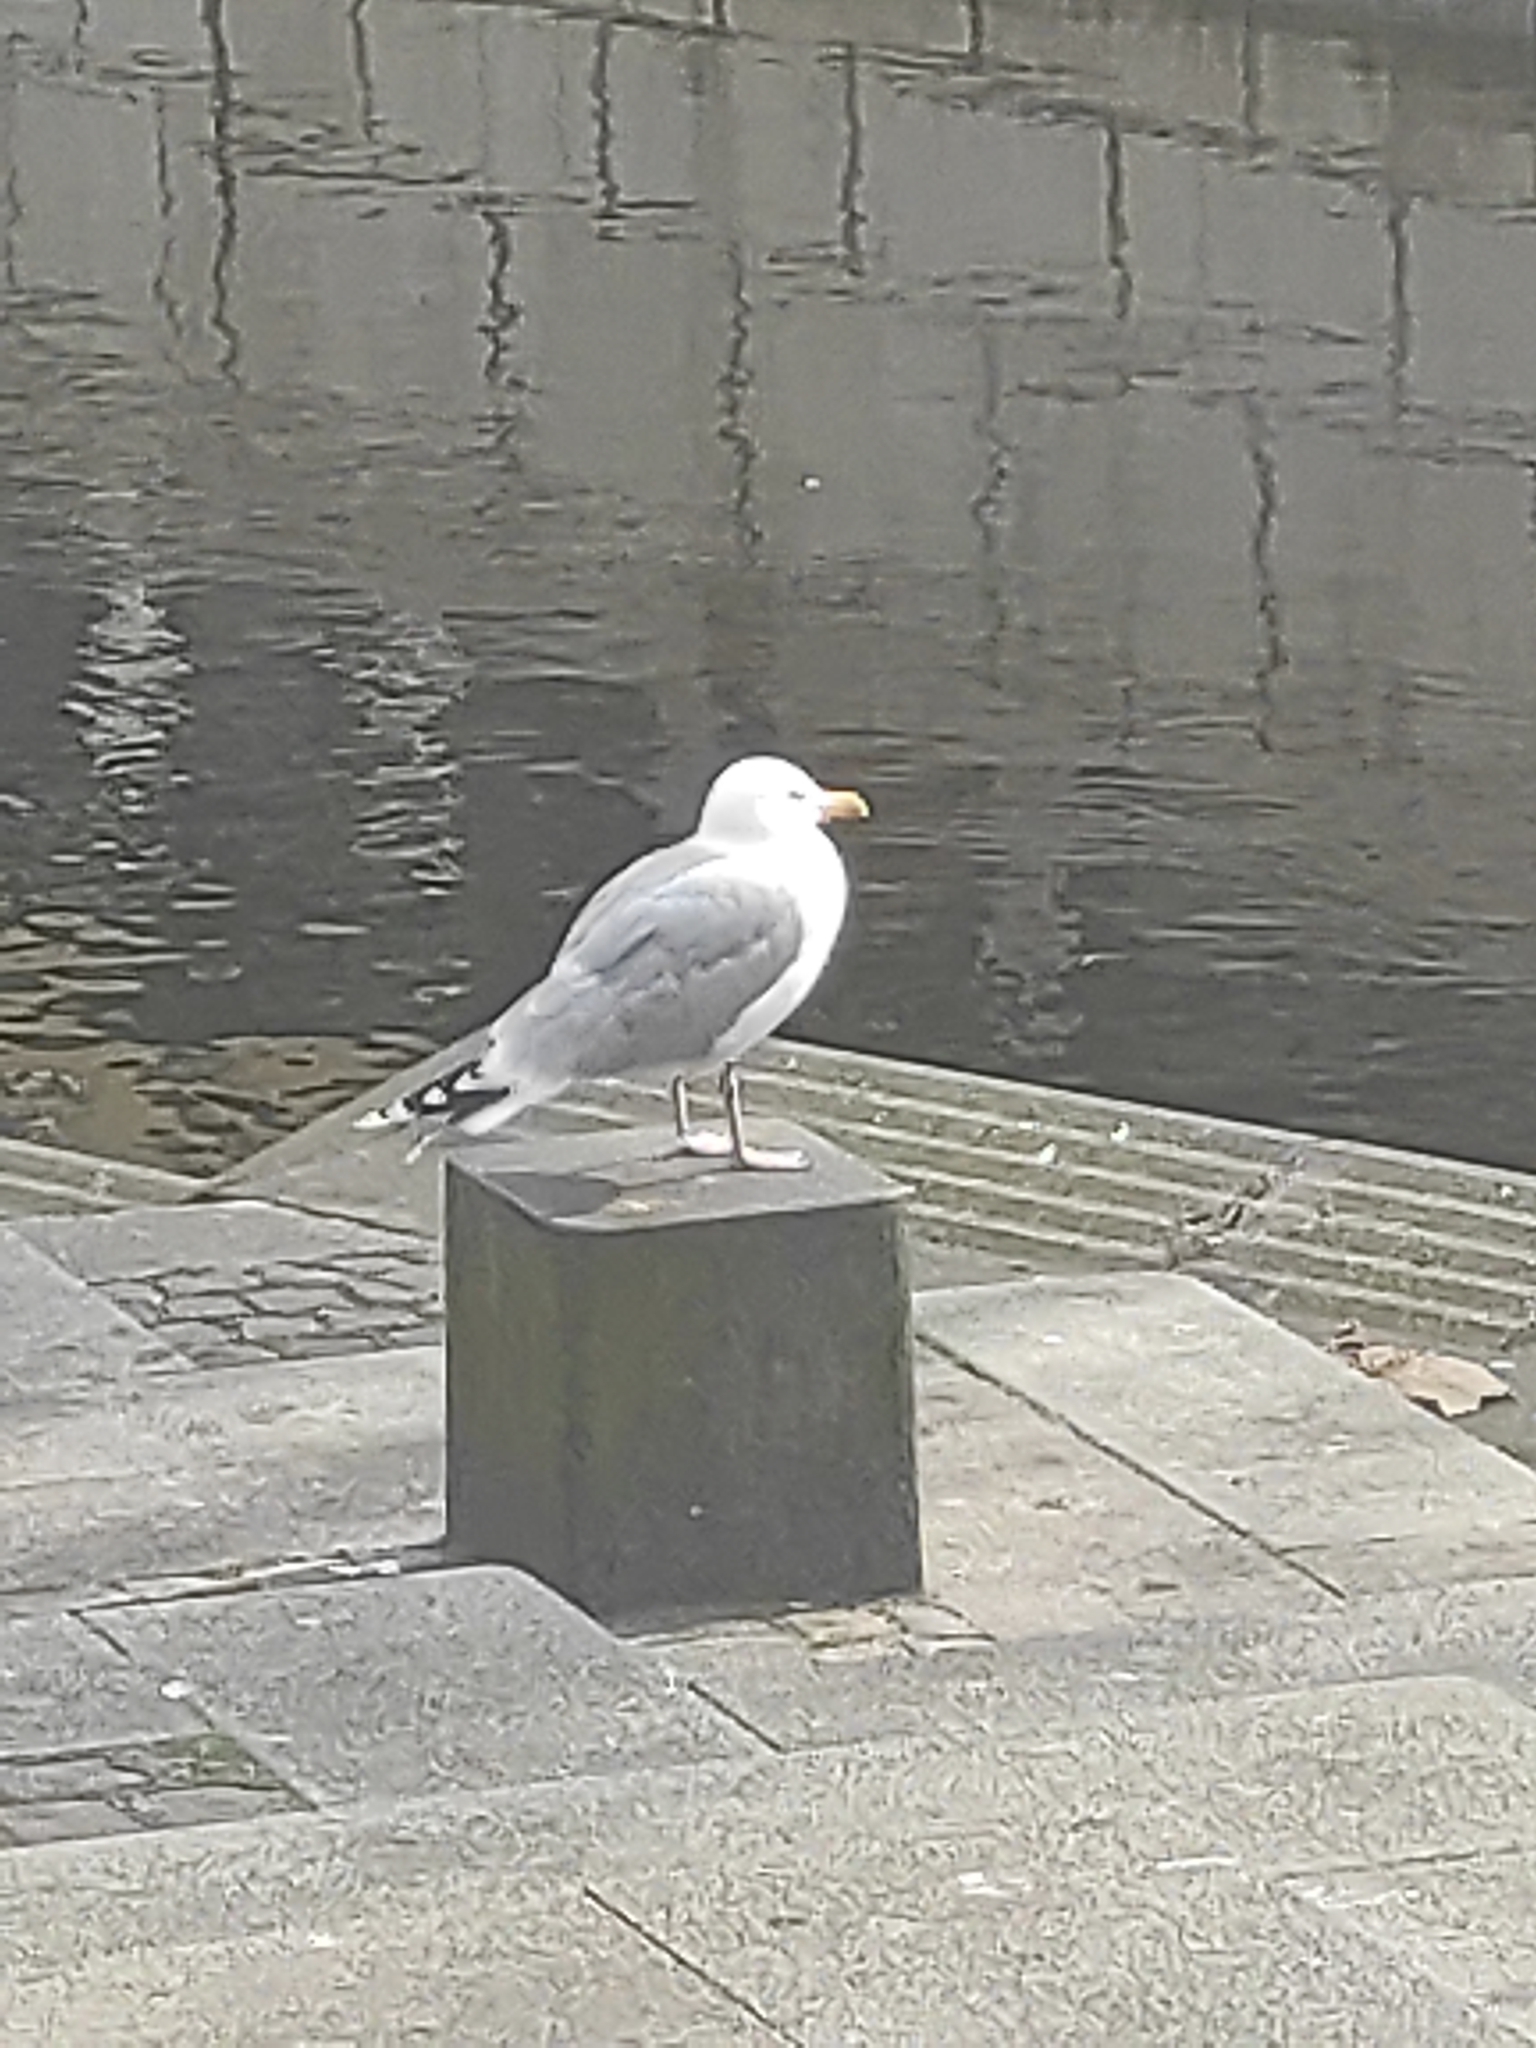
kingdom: Animalia
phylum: Chordata
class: Aves
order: Charadriiformes
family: Laridae
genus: Larus
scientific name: Larus argentatus
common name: Herring gull
